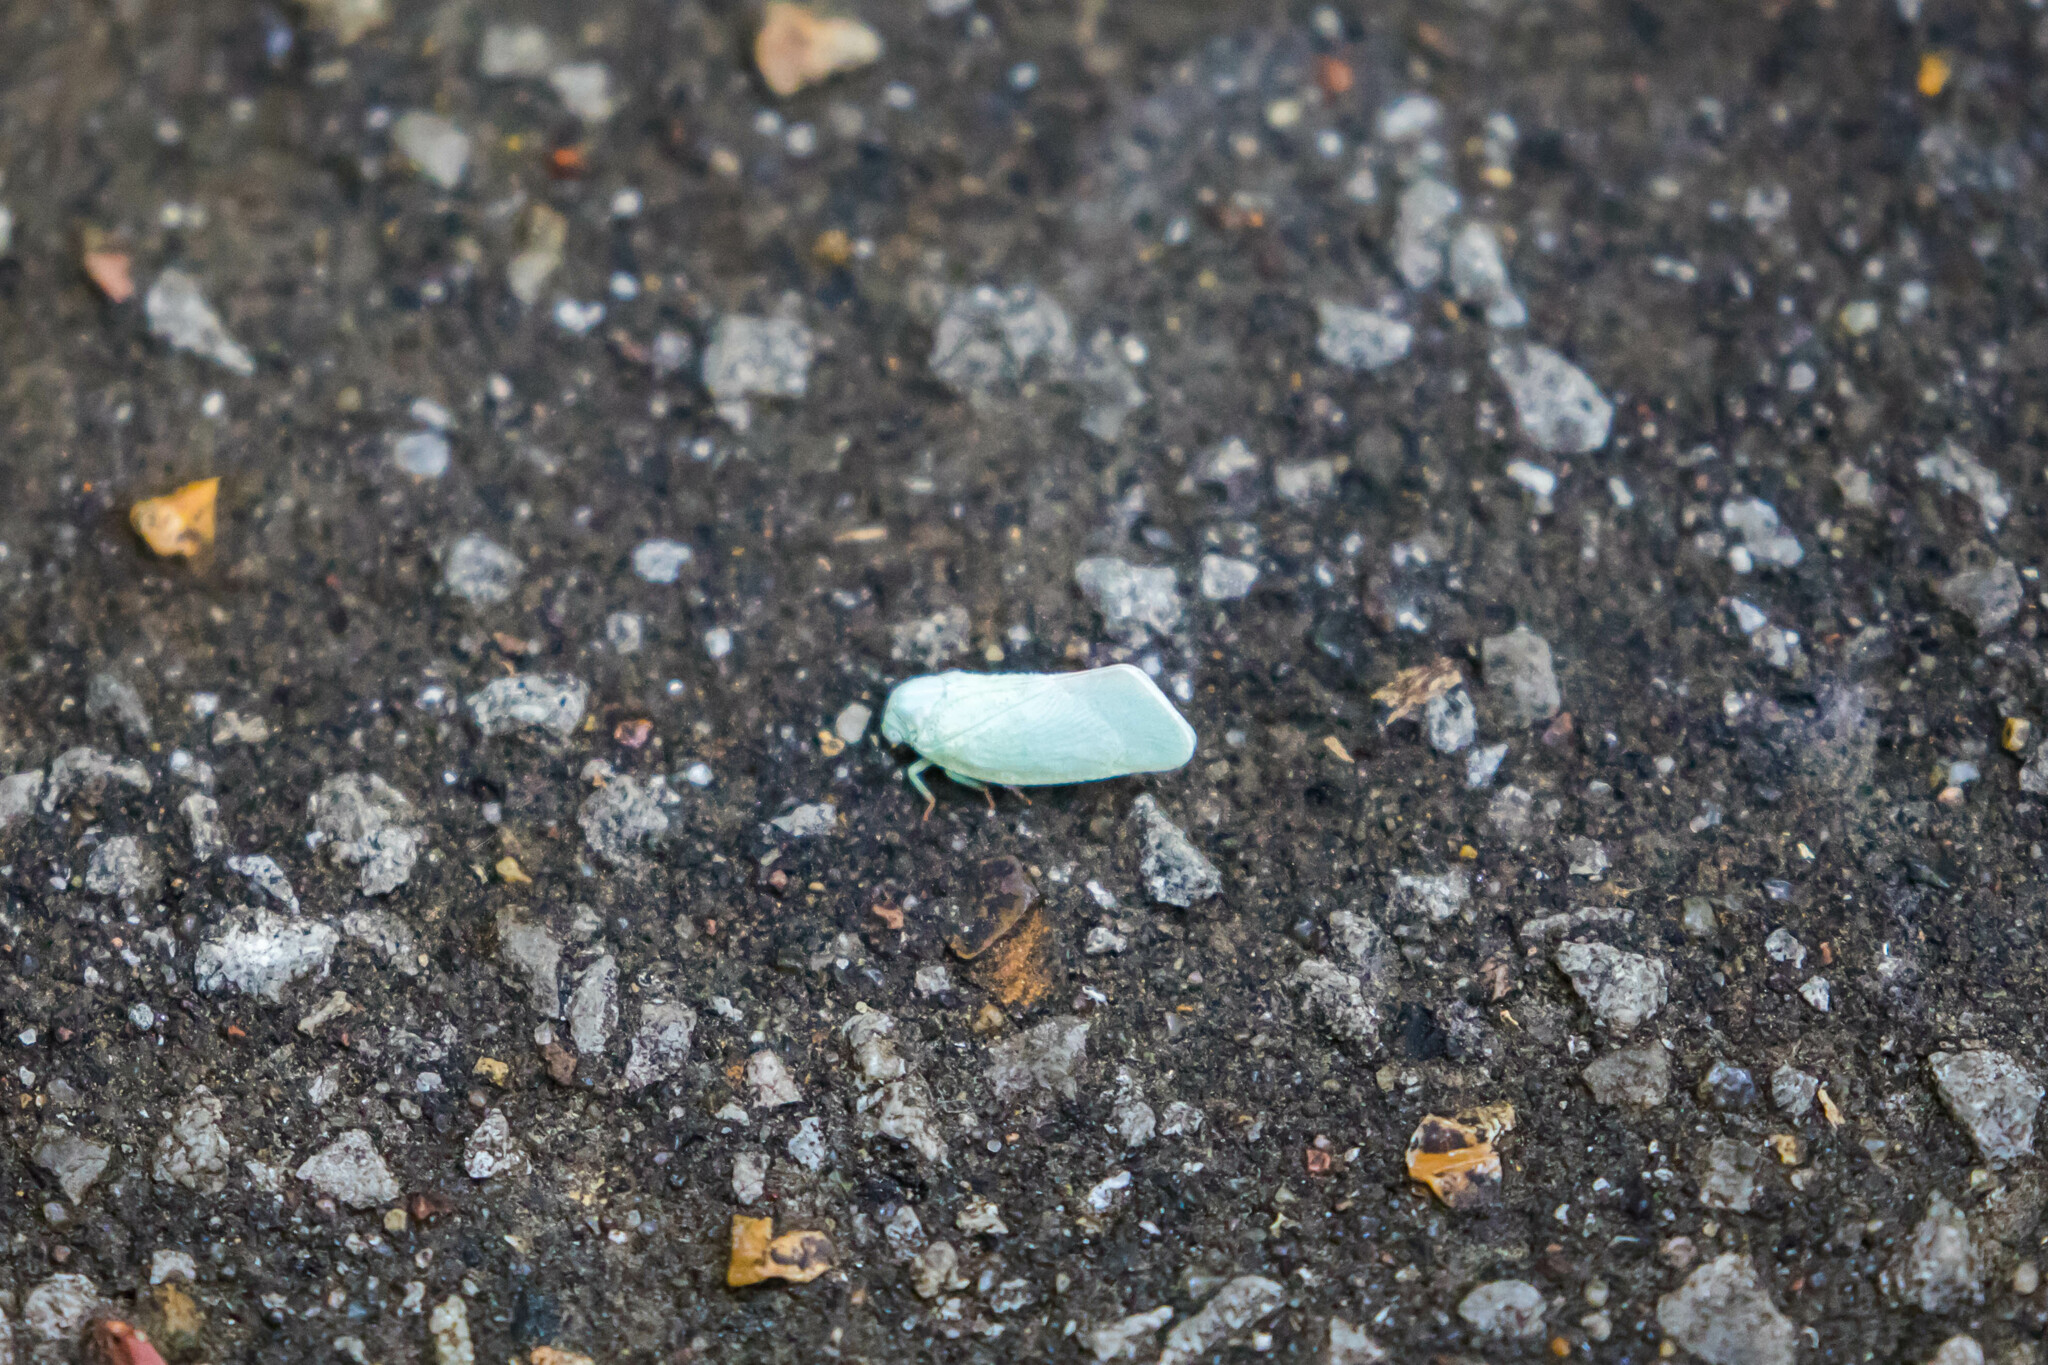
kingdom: Animalia
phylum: Arthropoda
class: Insecta
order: Hemiptera
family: Flatidae
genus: Flatormenis
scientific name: Flatormenis proxima
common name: Northern flatid planthopper
